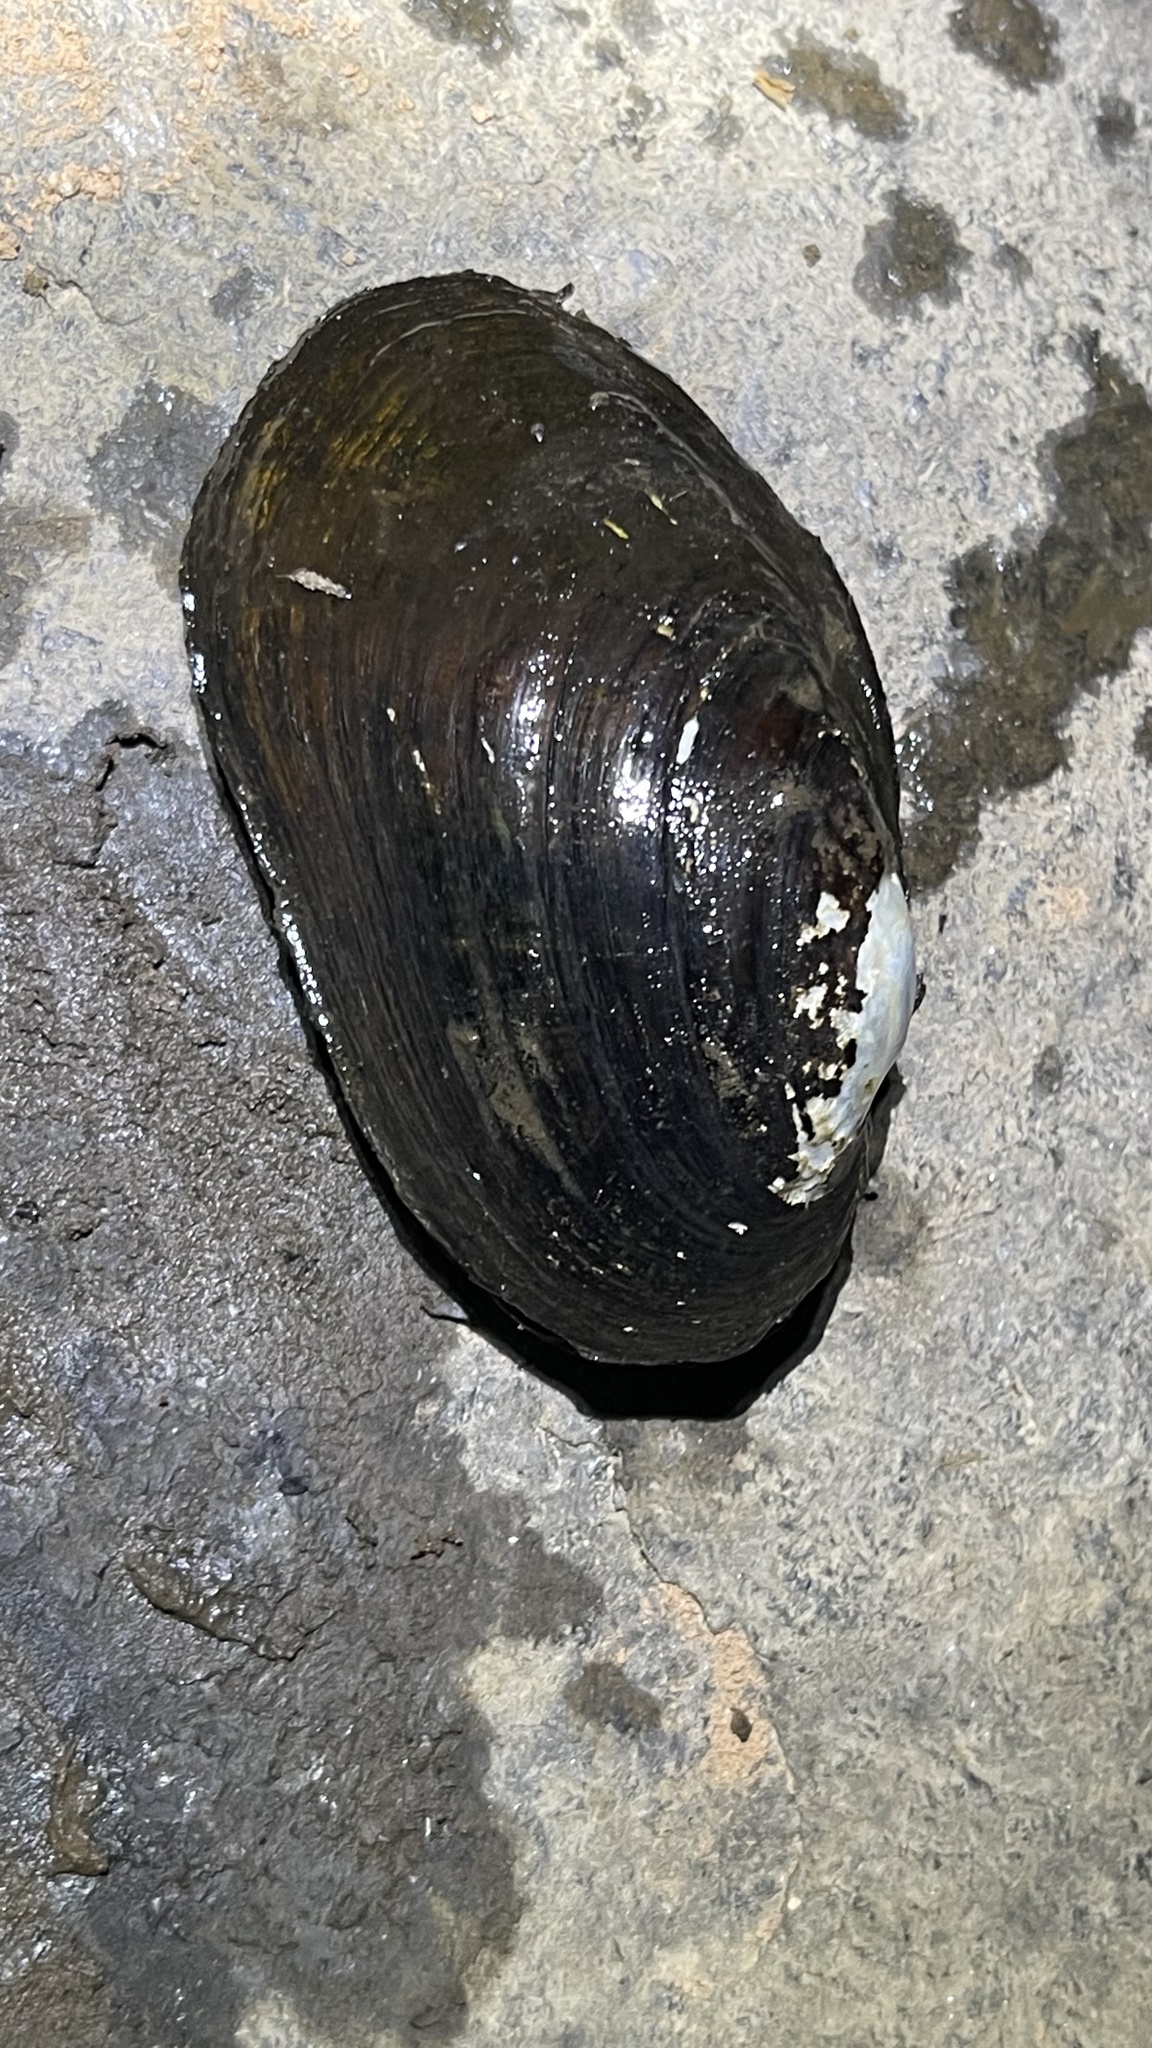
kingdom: Animalia
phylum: Mollusca
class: Bivalvia
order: Unionida
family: Unionidae
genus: Lampsilis
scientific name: Lampsilis siliquoidea
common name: Fatmucket
